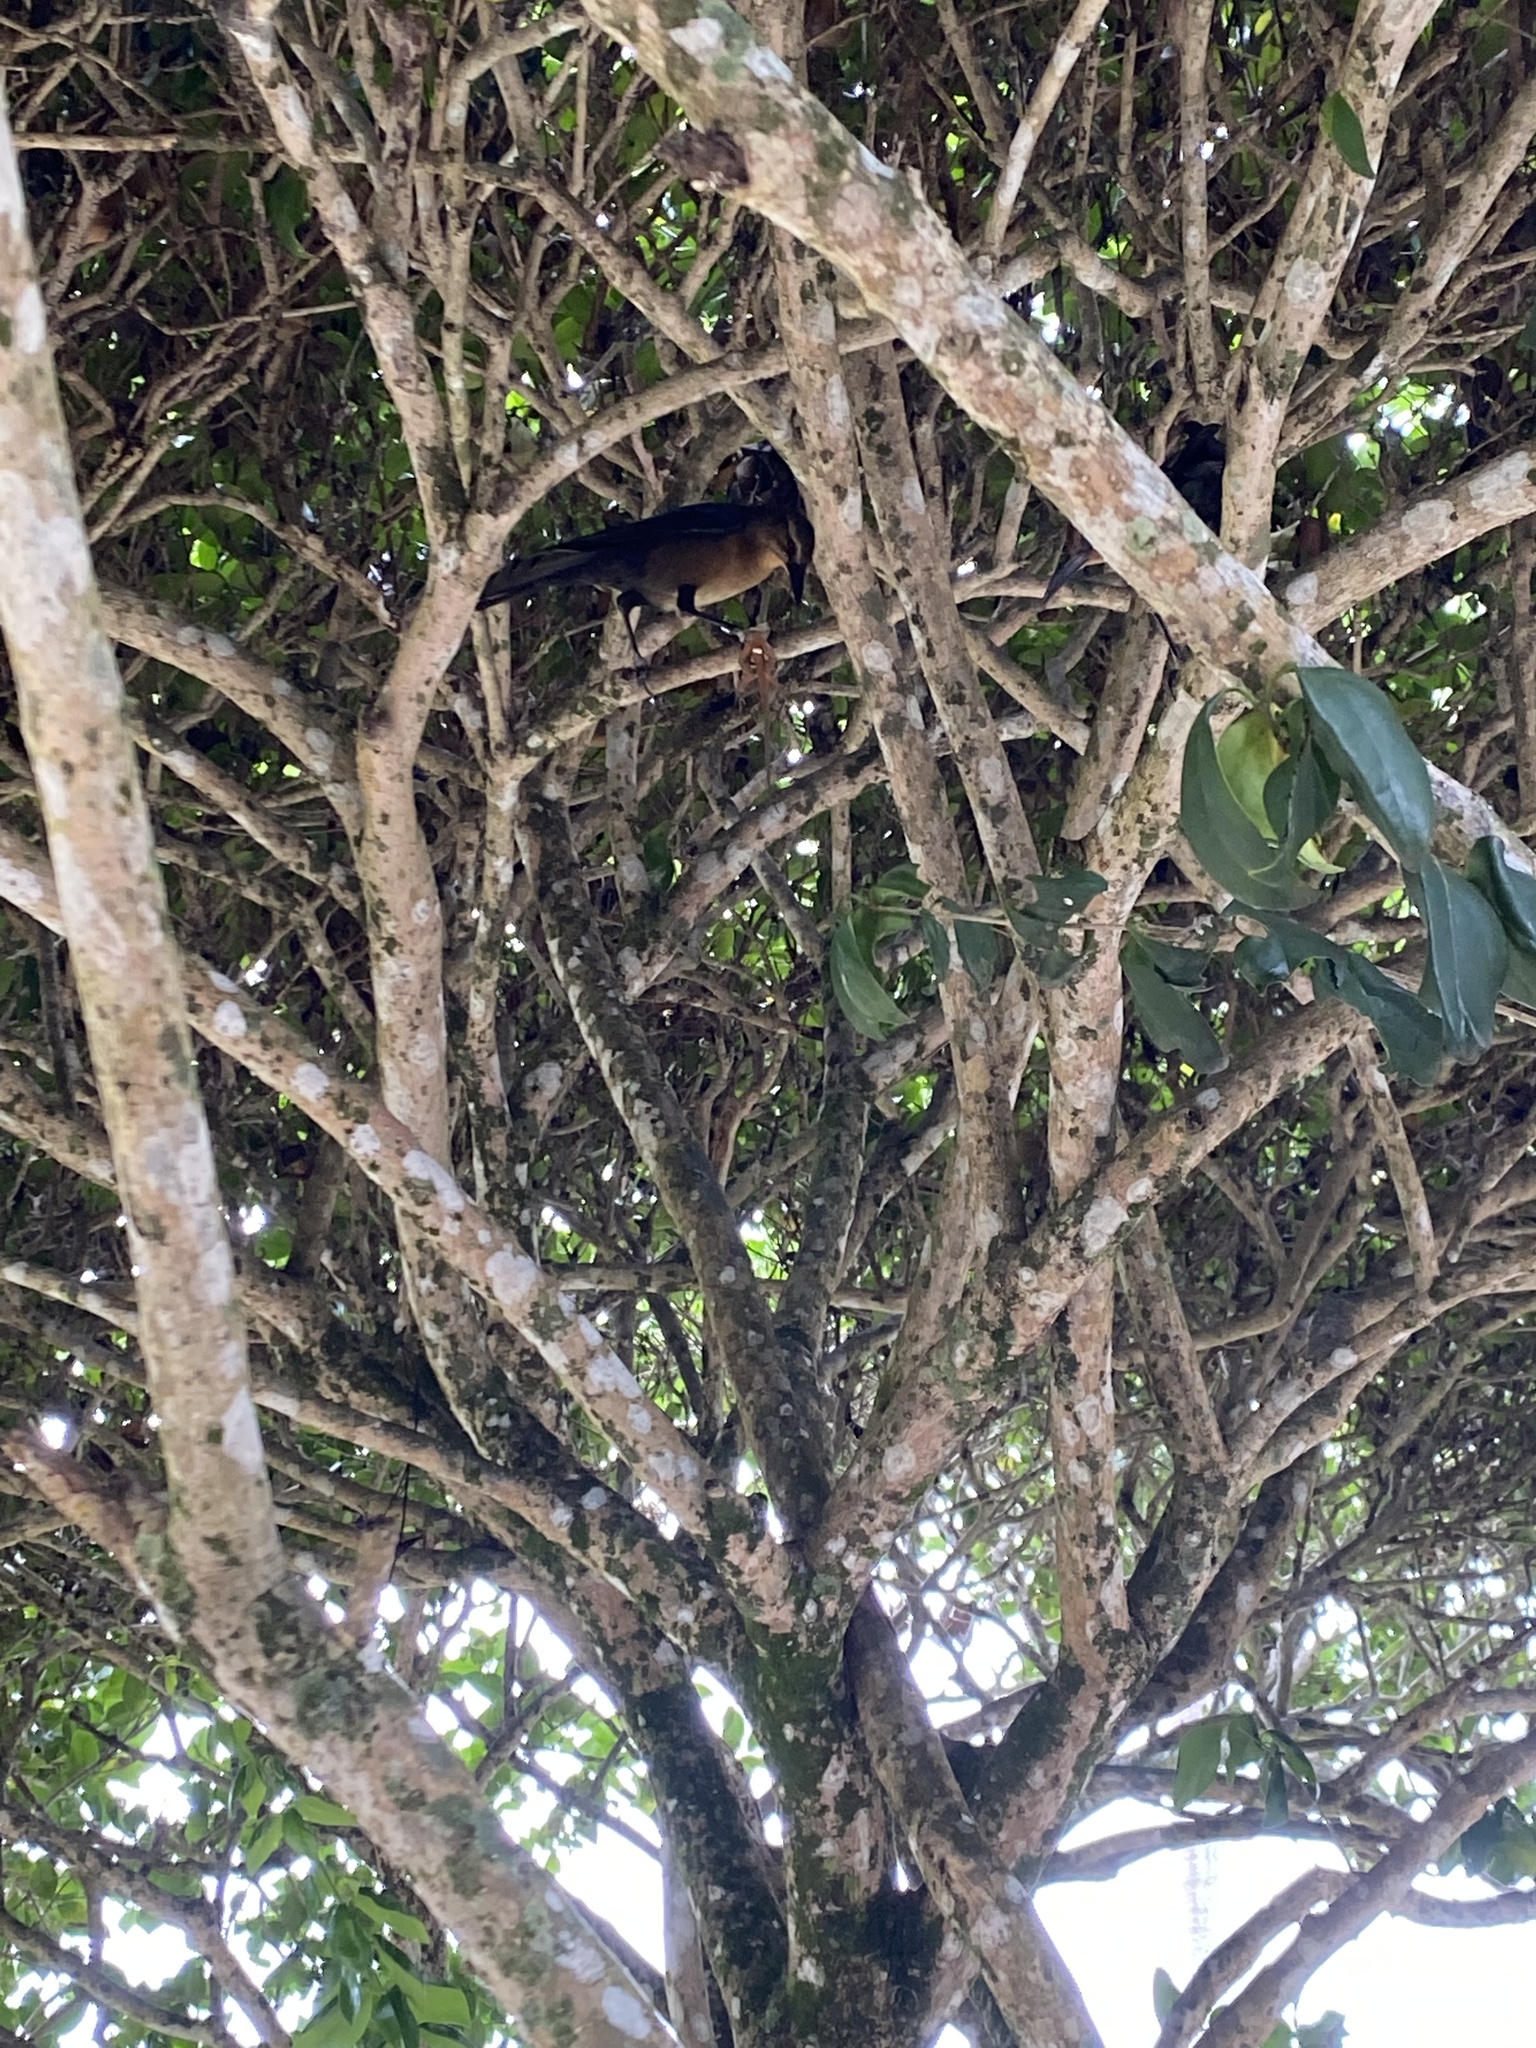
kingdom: Animalia
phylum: Chordata
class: Aves
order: Passeriformes
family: Icteridae
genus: Quiscalus
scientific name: Quiscalus major
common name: Boat-tailed grackle
